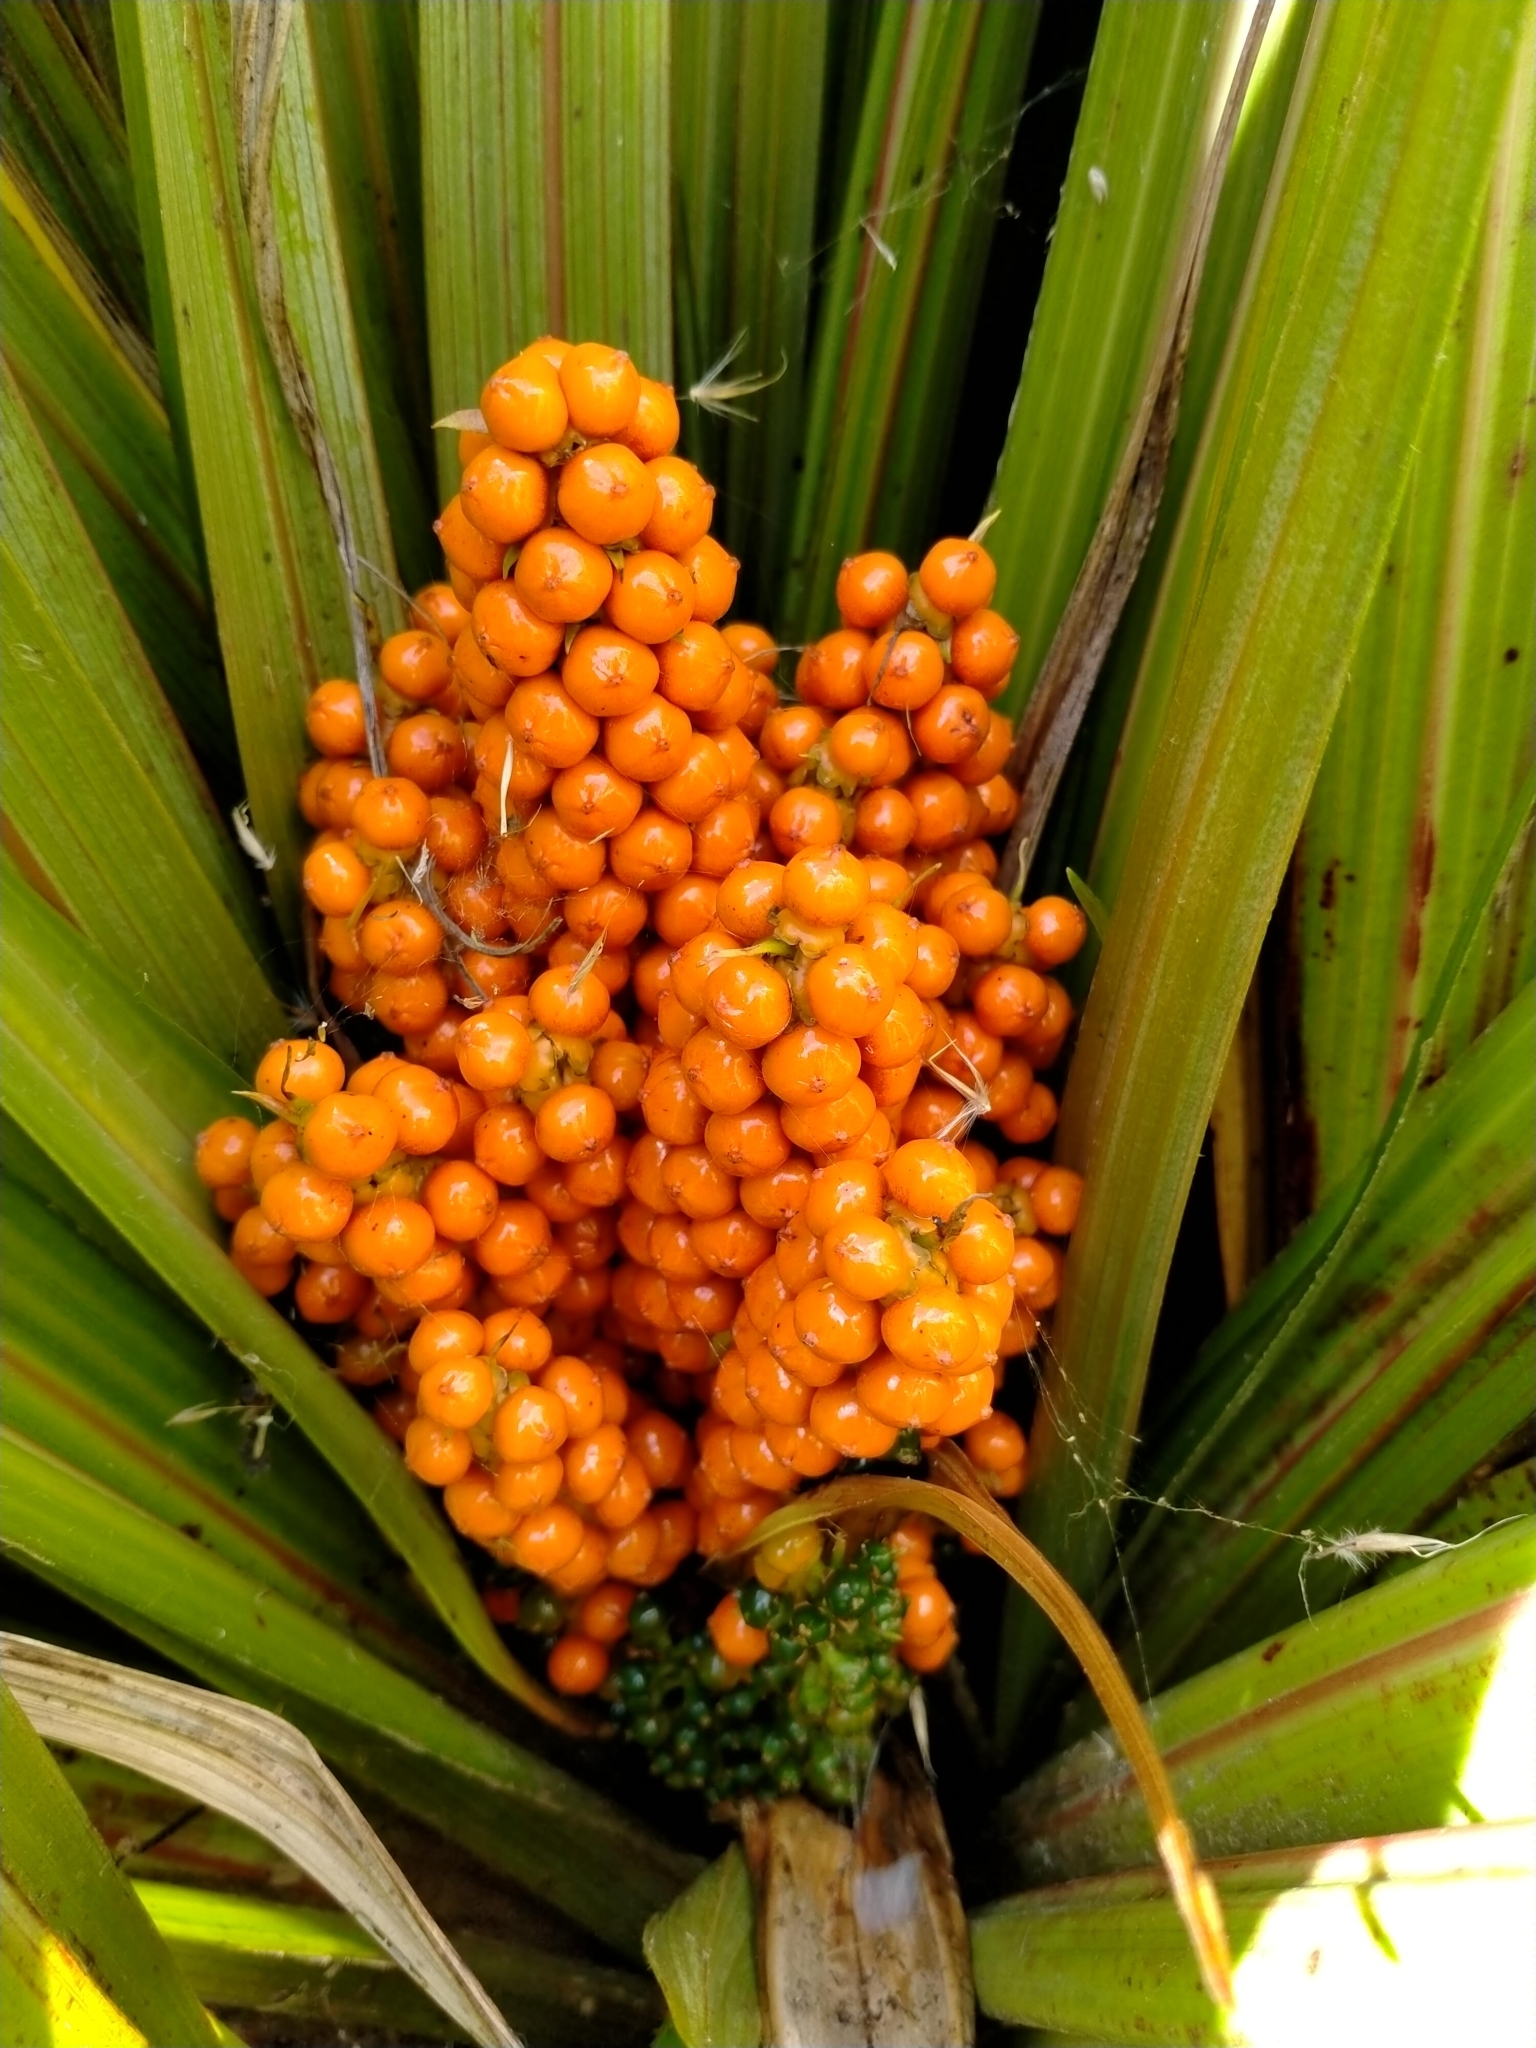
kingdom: Plantae
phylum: Tracheophyta
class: Liliopsida
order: Asparagales
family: Asteliaceae
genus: Astelia
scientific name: Astelia fragrans
